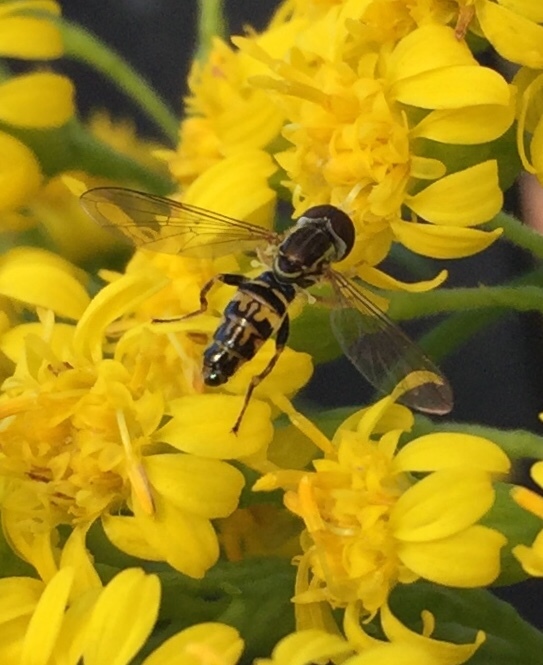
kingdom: Animalia
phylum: Arthropoda
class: Insecta
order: Diptera
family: Syrphidae
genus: Toxomerus
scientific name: Toxomerus geminatus
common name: Eastern calligrapher
